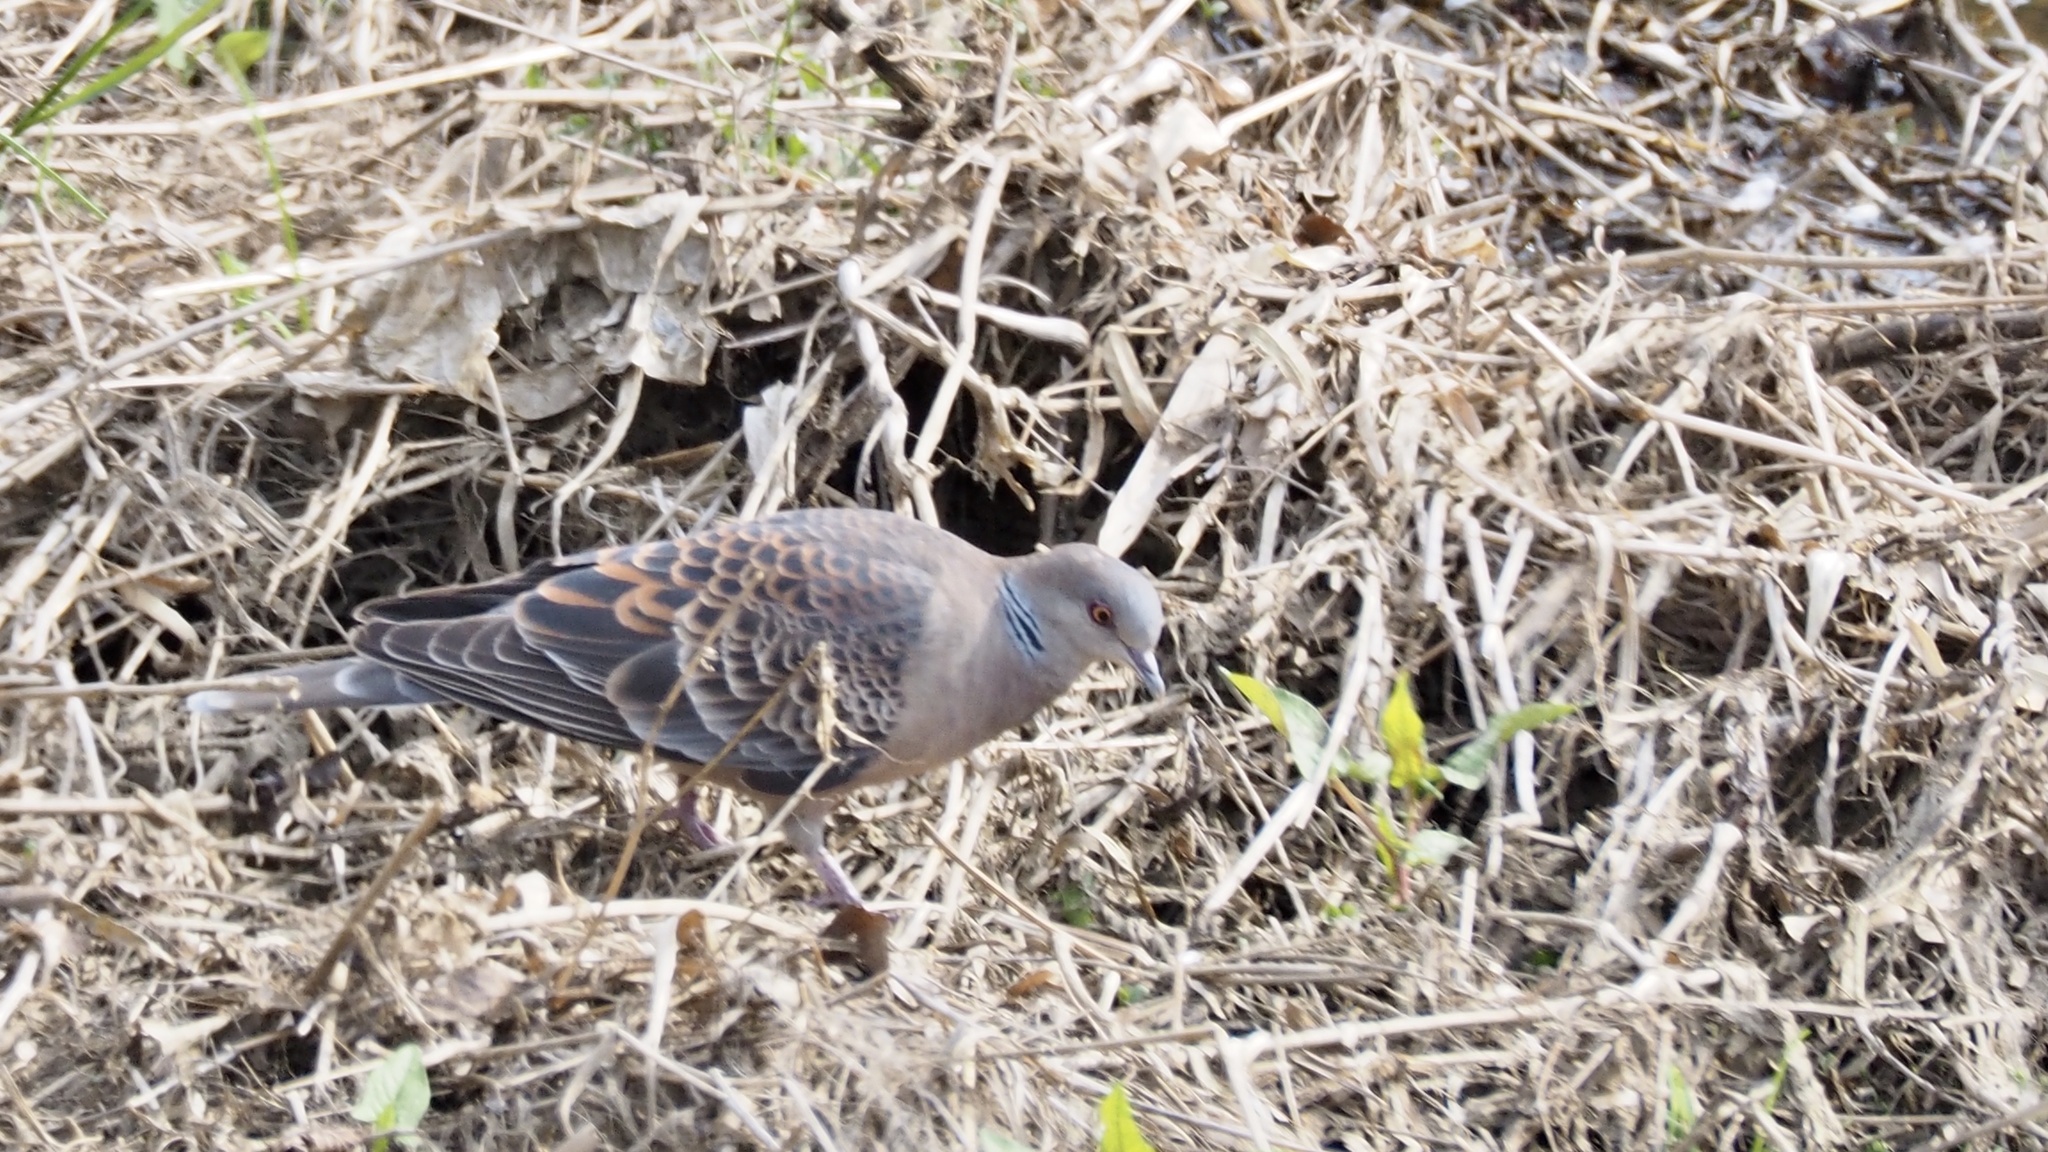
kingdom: Animalia
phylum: Chordata
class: Aves
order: Columbiformes
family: Columbidae
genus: Streptopelia
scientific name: Streptopelia orientalis
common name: Oriental turtle dove
